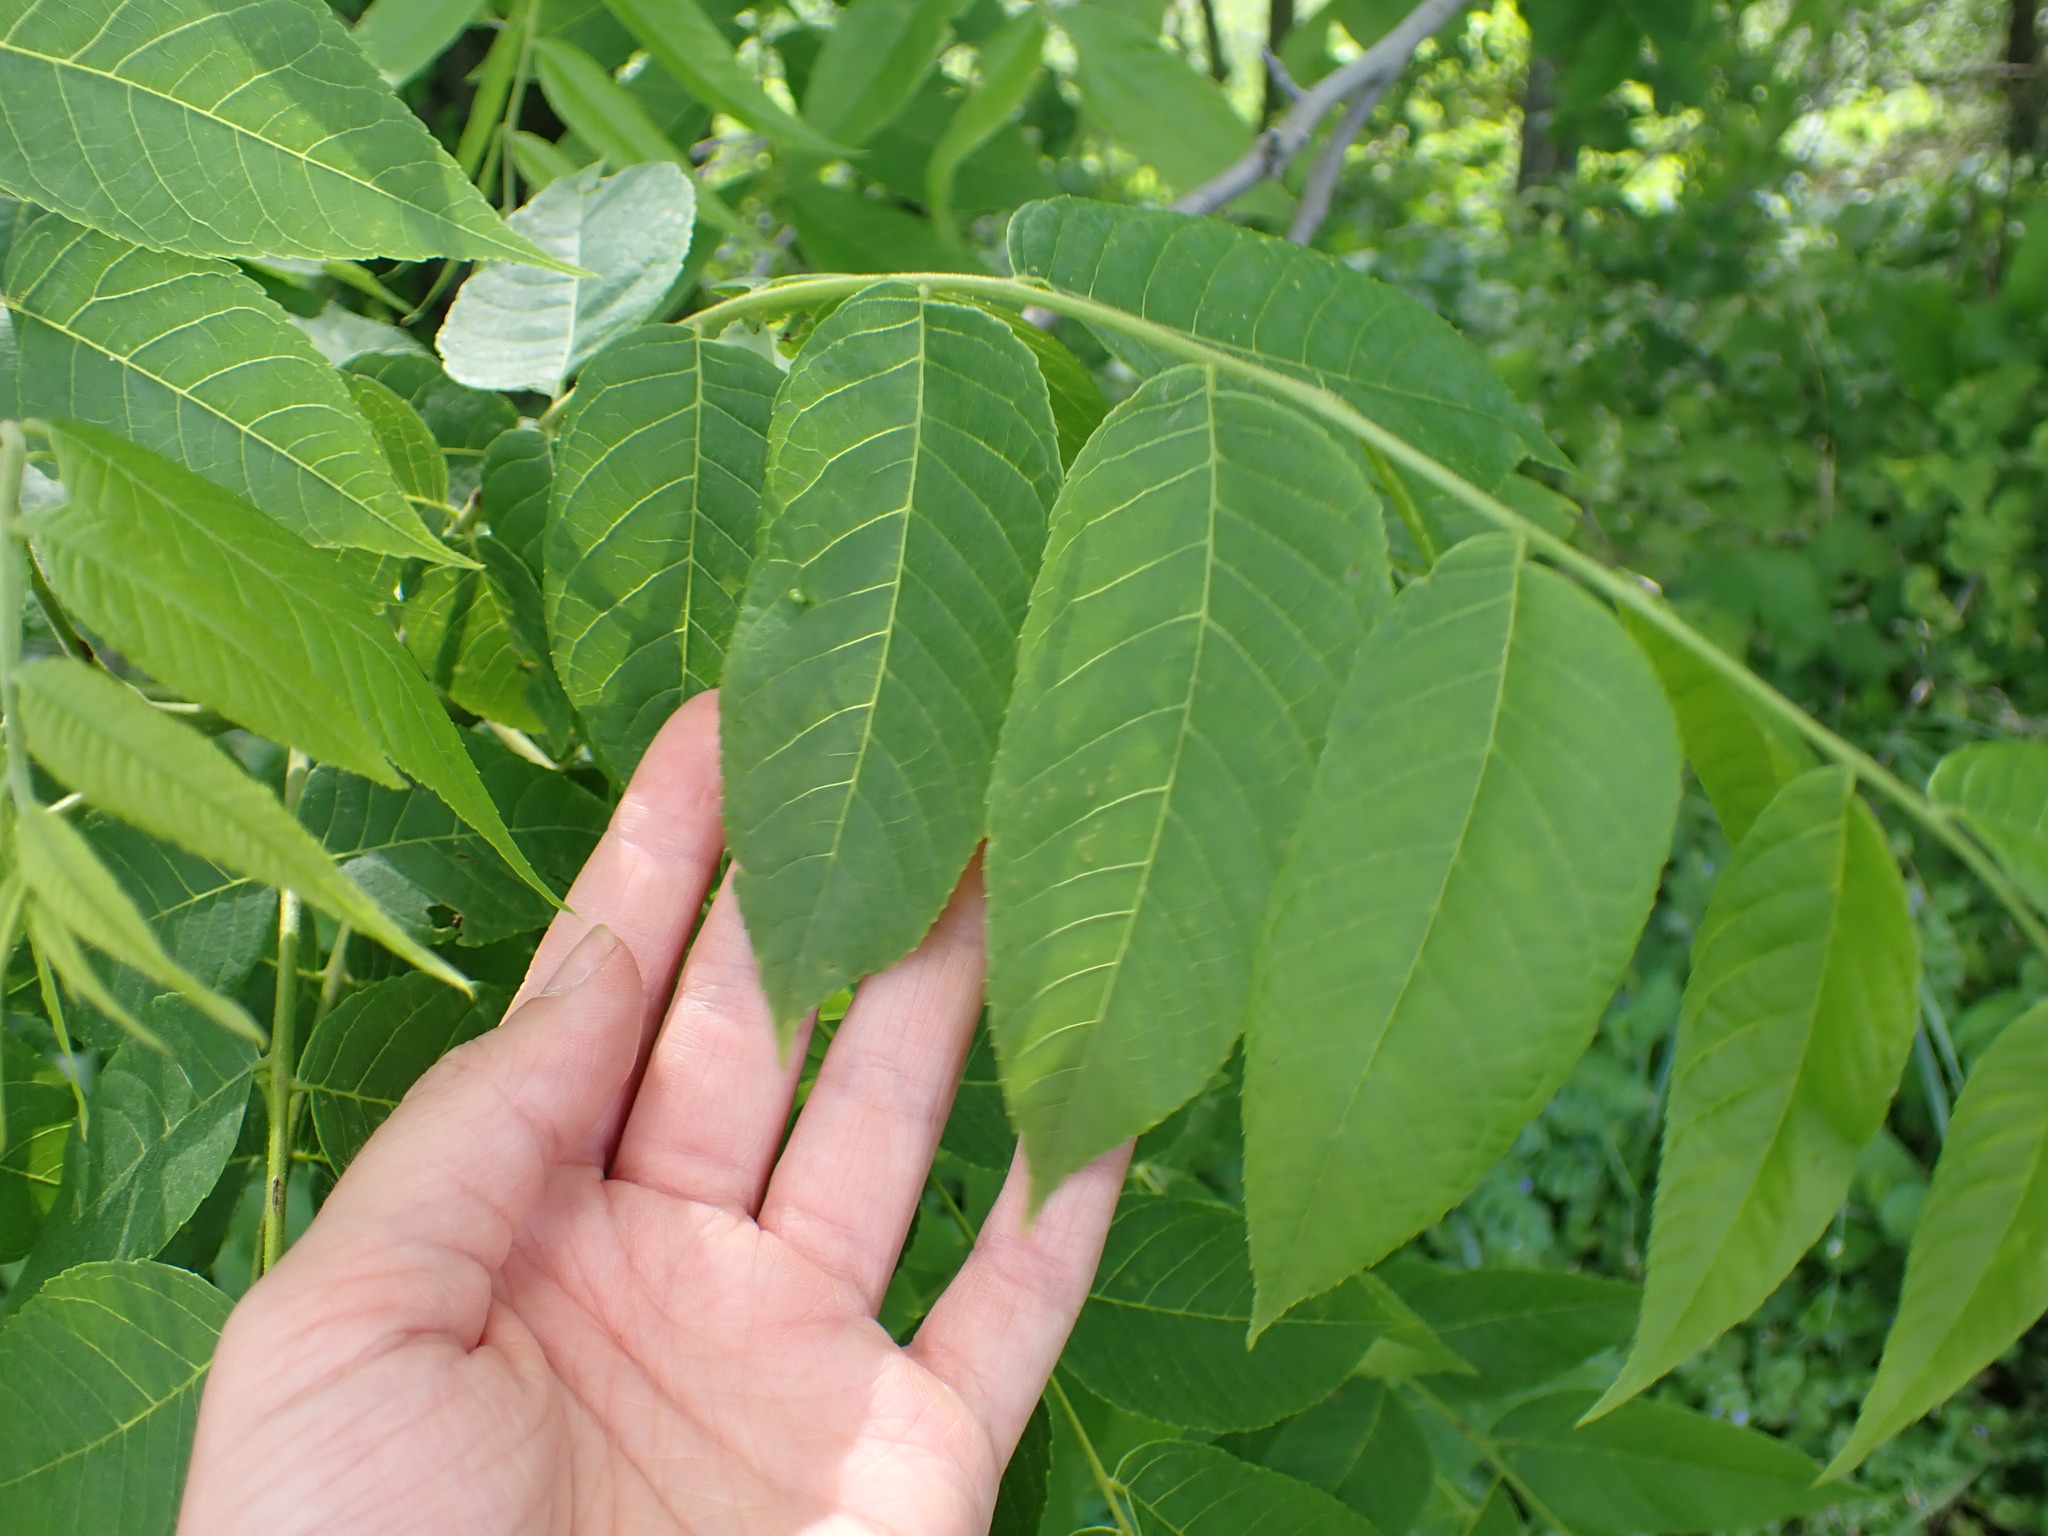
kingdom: Plantae
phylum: Tracheophyta
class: Magnoliopsida
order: Fagales
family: Juglandaceae
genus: Juglans
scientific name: Juglans nigra
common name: Black walnut
